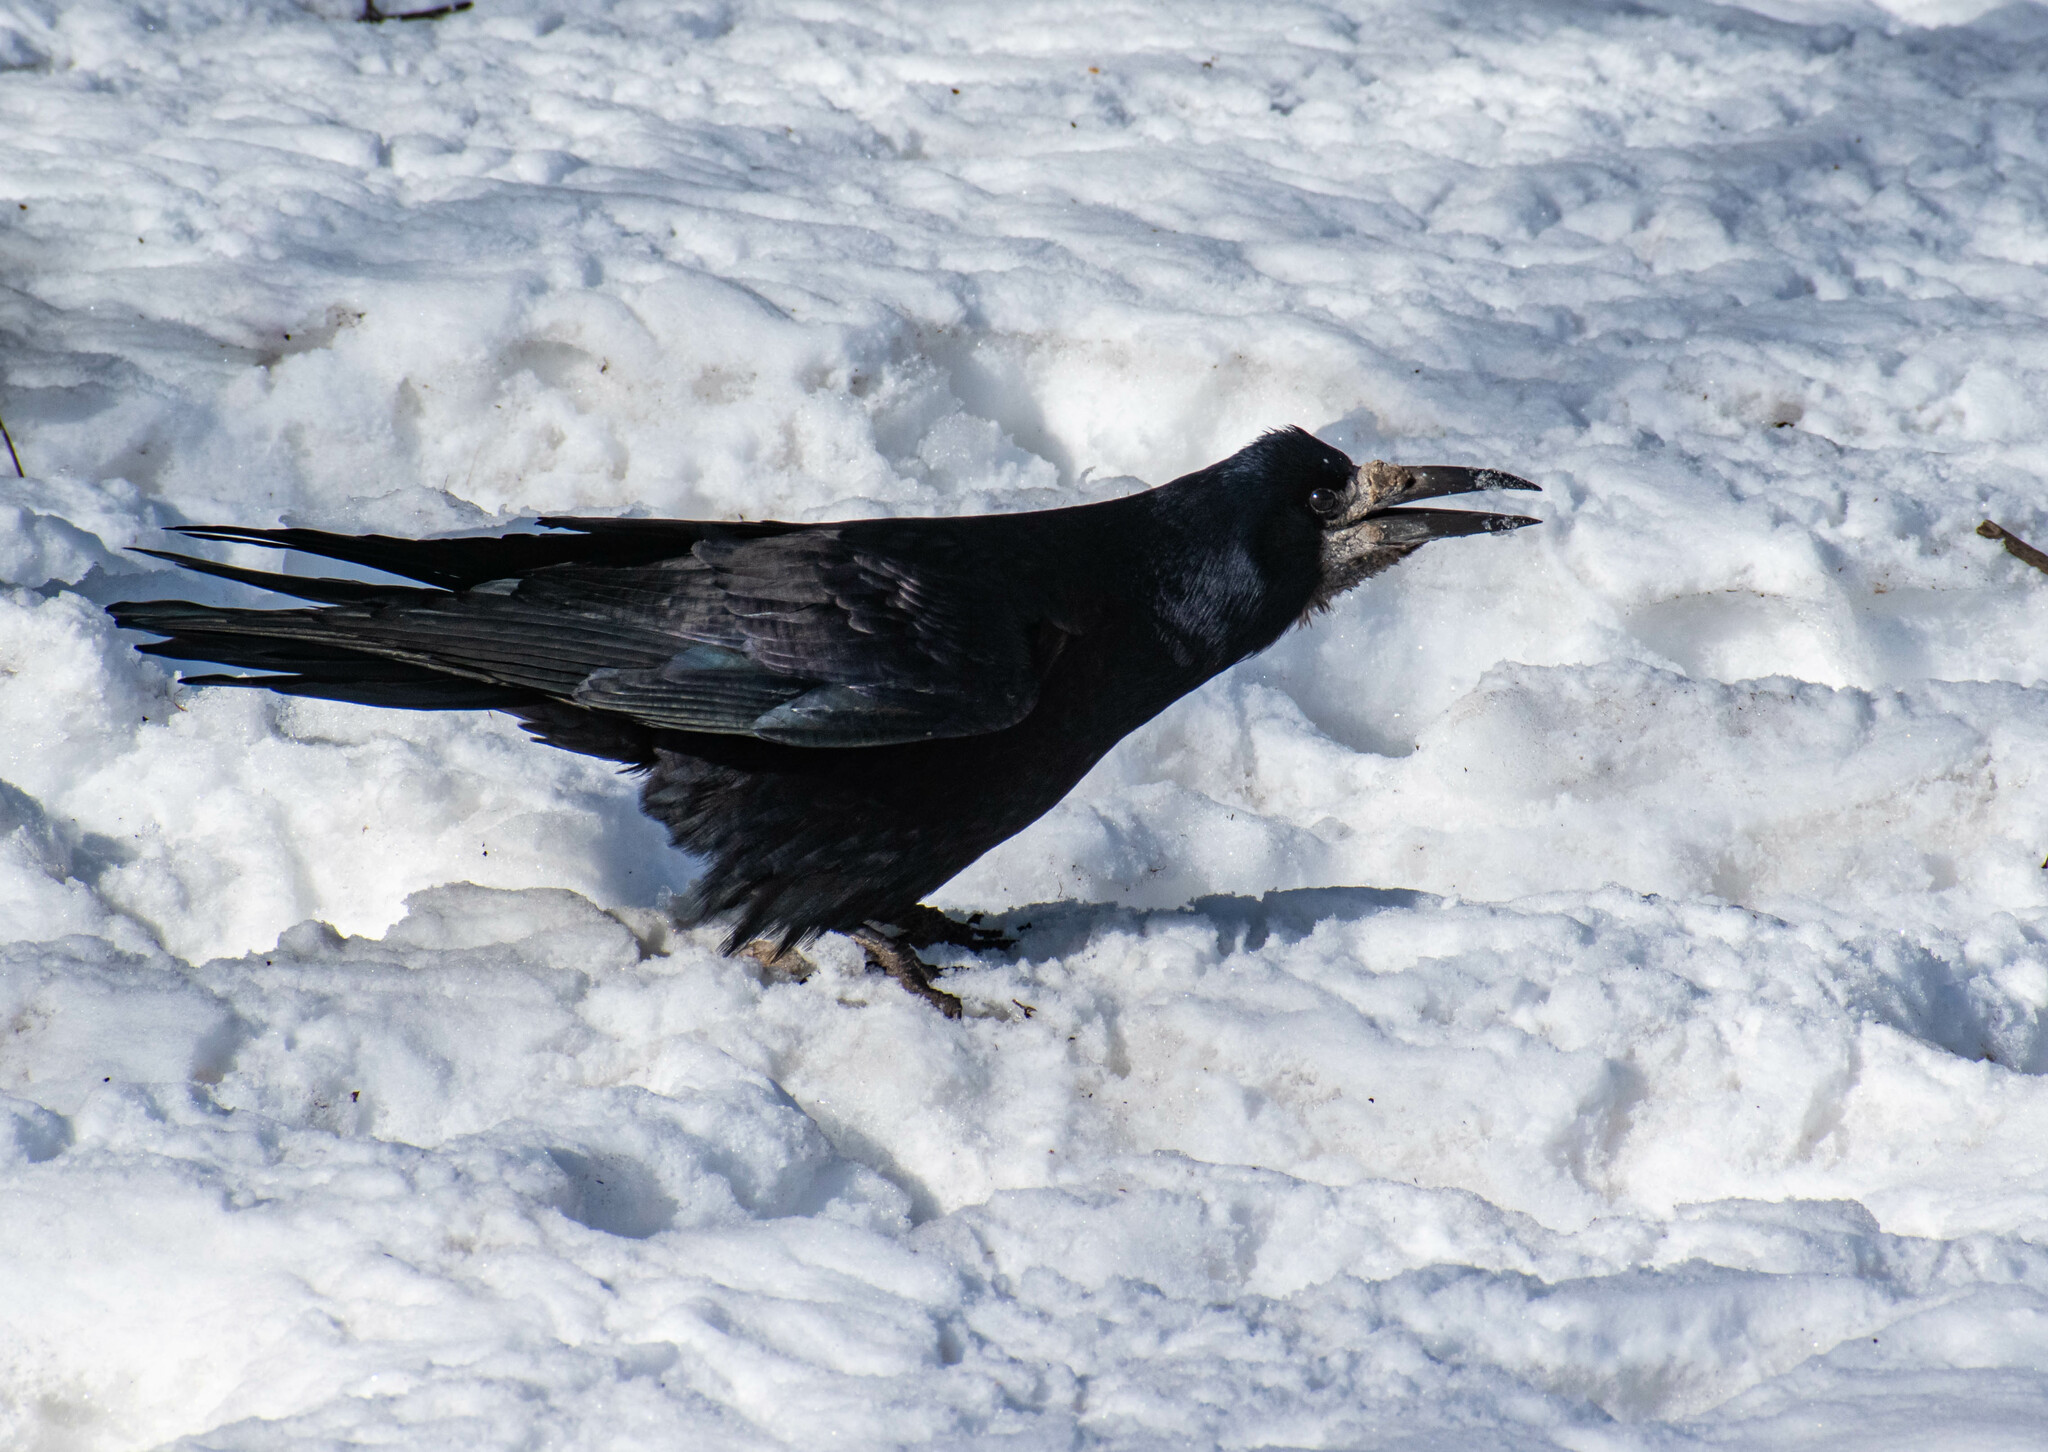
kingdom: Animalia
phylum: Chordata
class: Aves
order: Passeriformes
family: Corvidae
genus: Corvus
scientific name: Corvus frugilegus
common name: Rook
